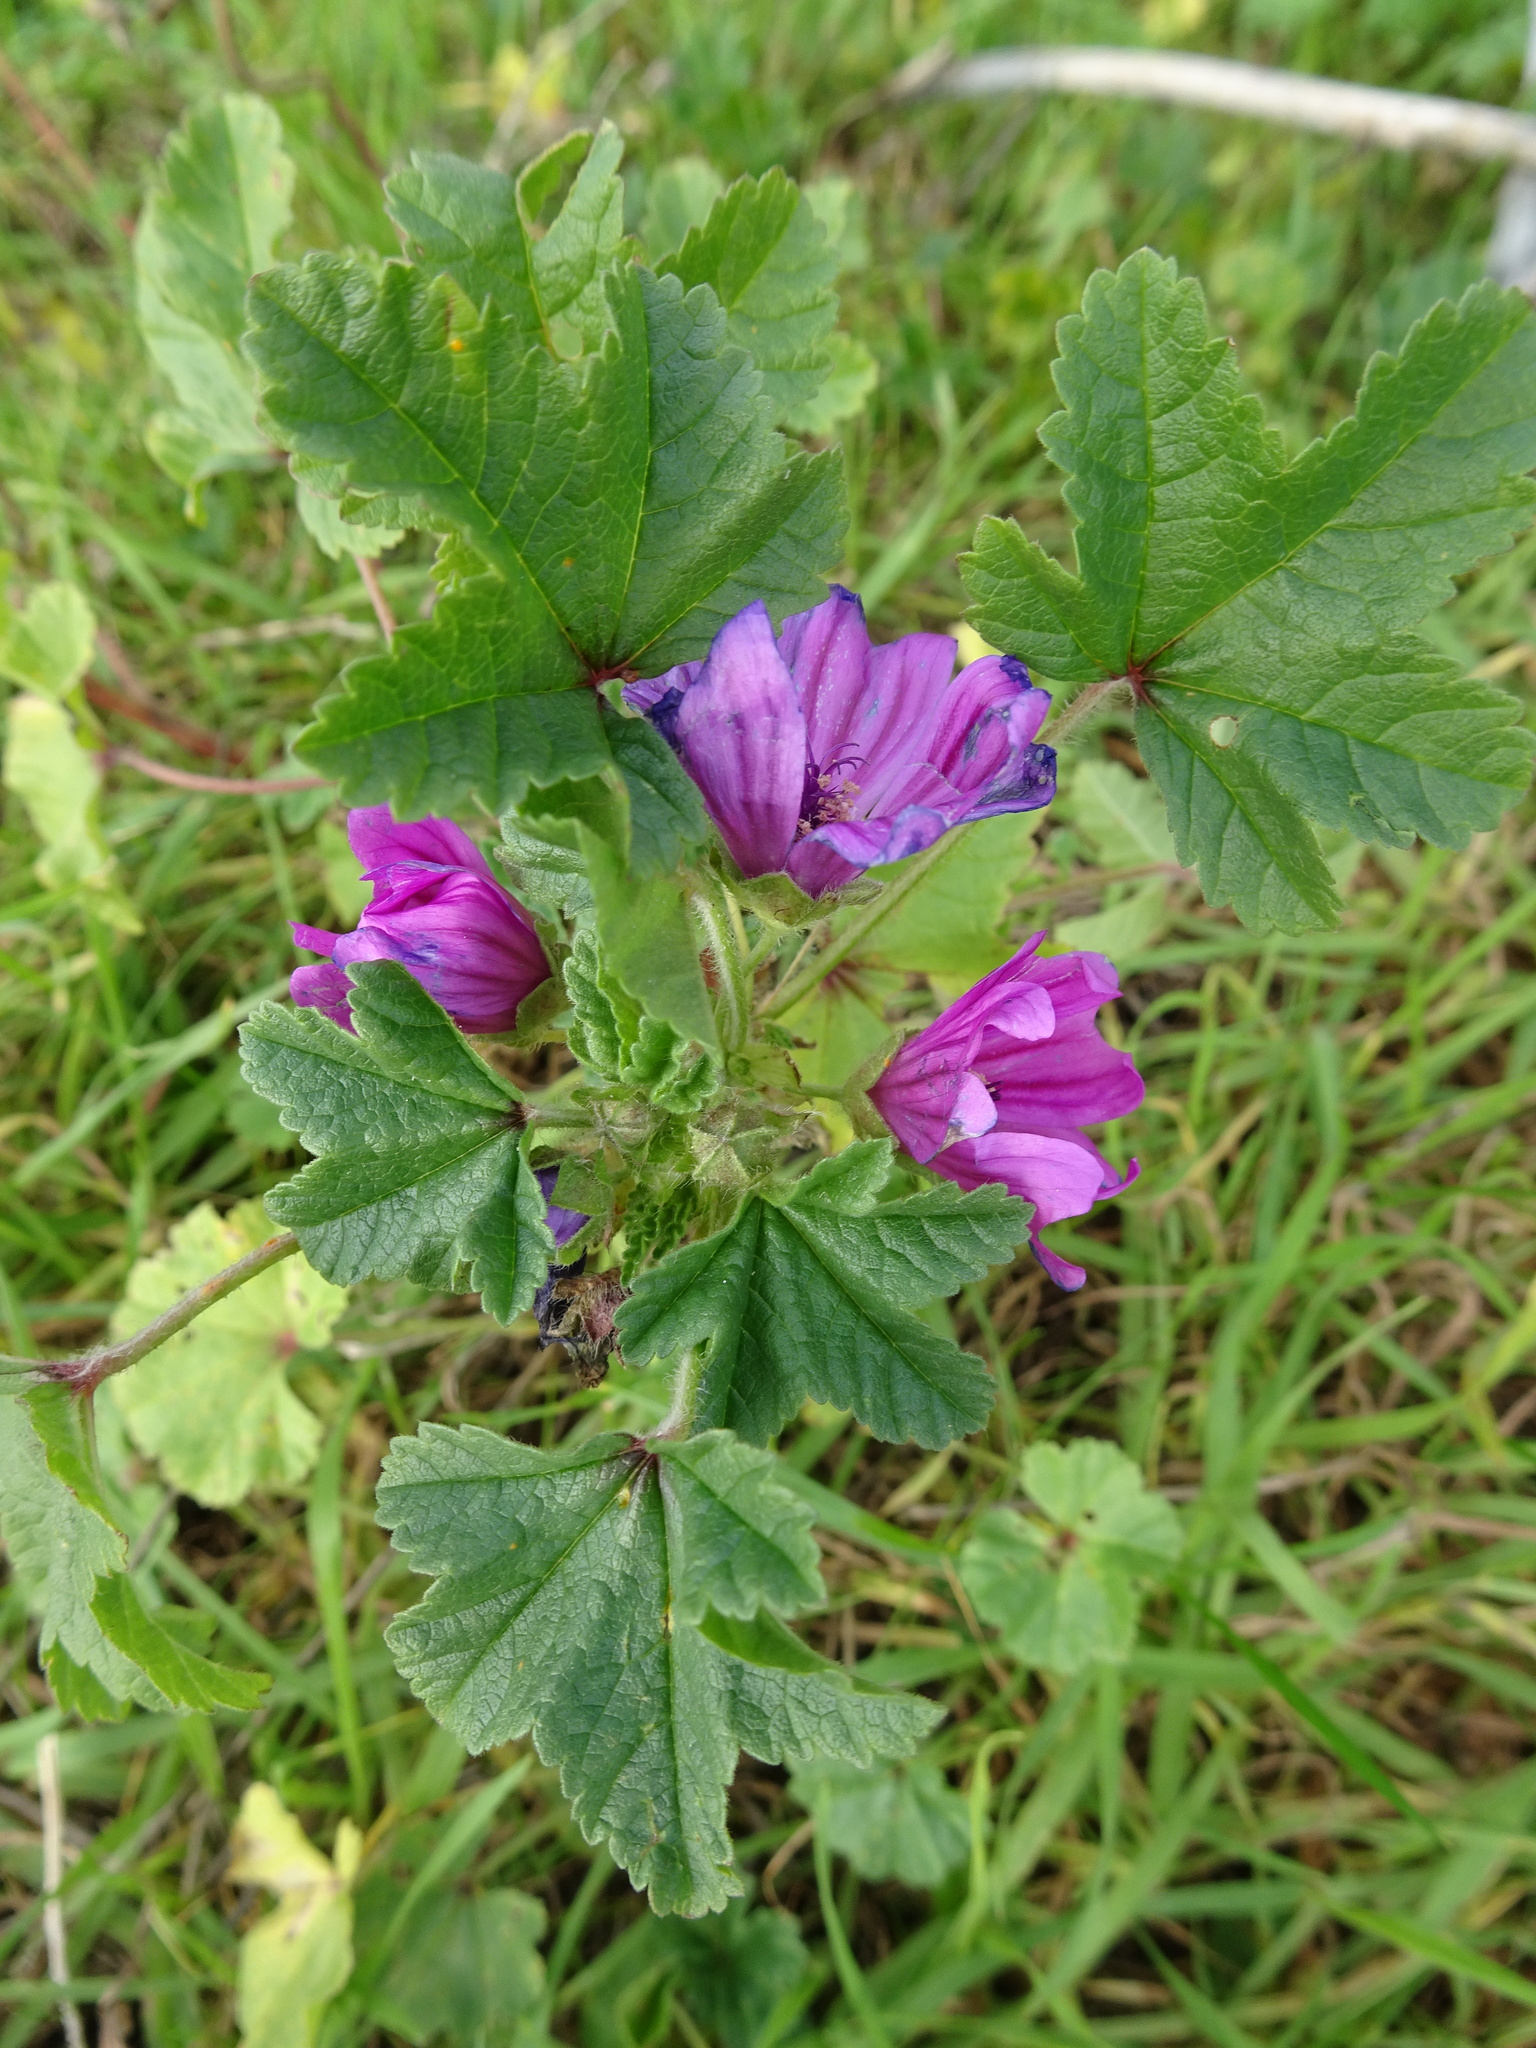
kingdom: Plantae
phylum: Tracheophyta
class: Magnoliopsida
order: Malvales
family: Malvaceae
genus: Malva
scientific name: Malva sylvestris
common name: Common mallow
